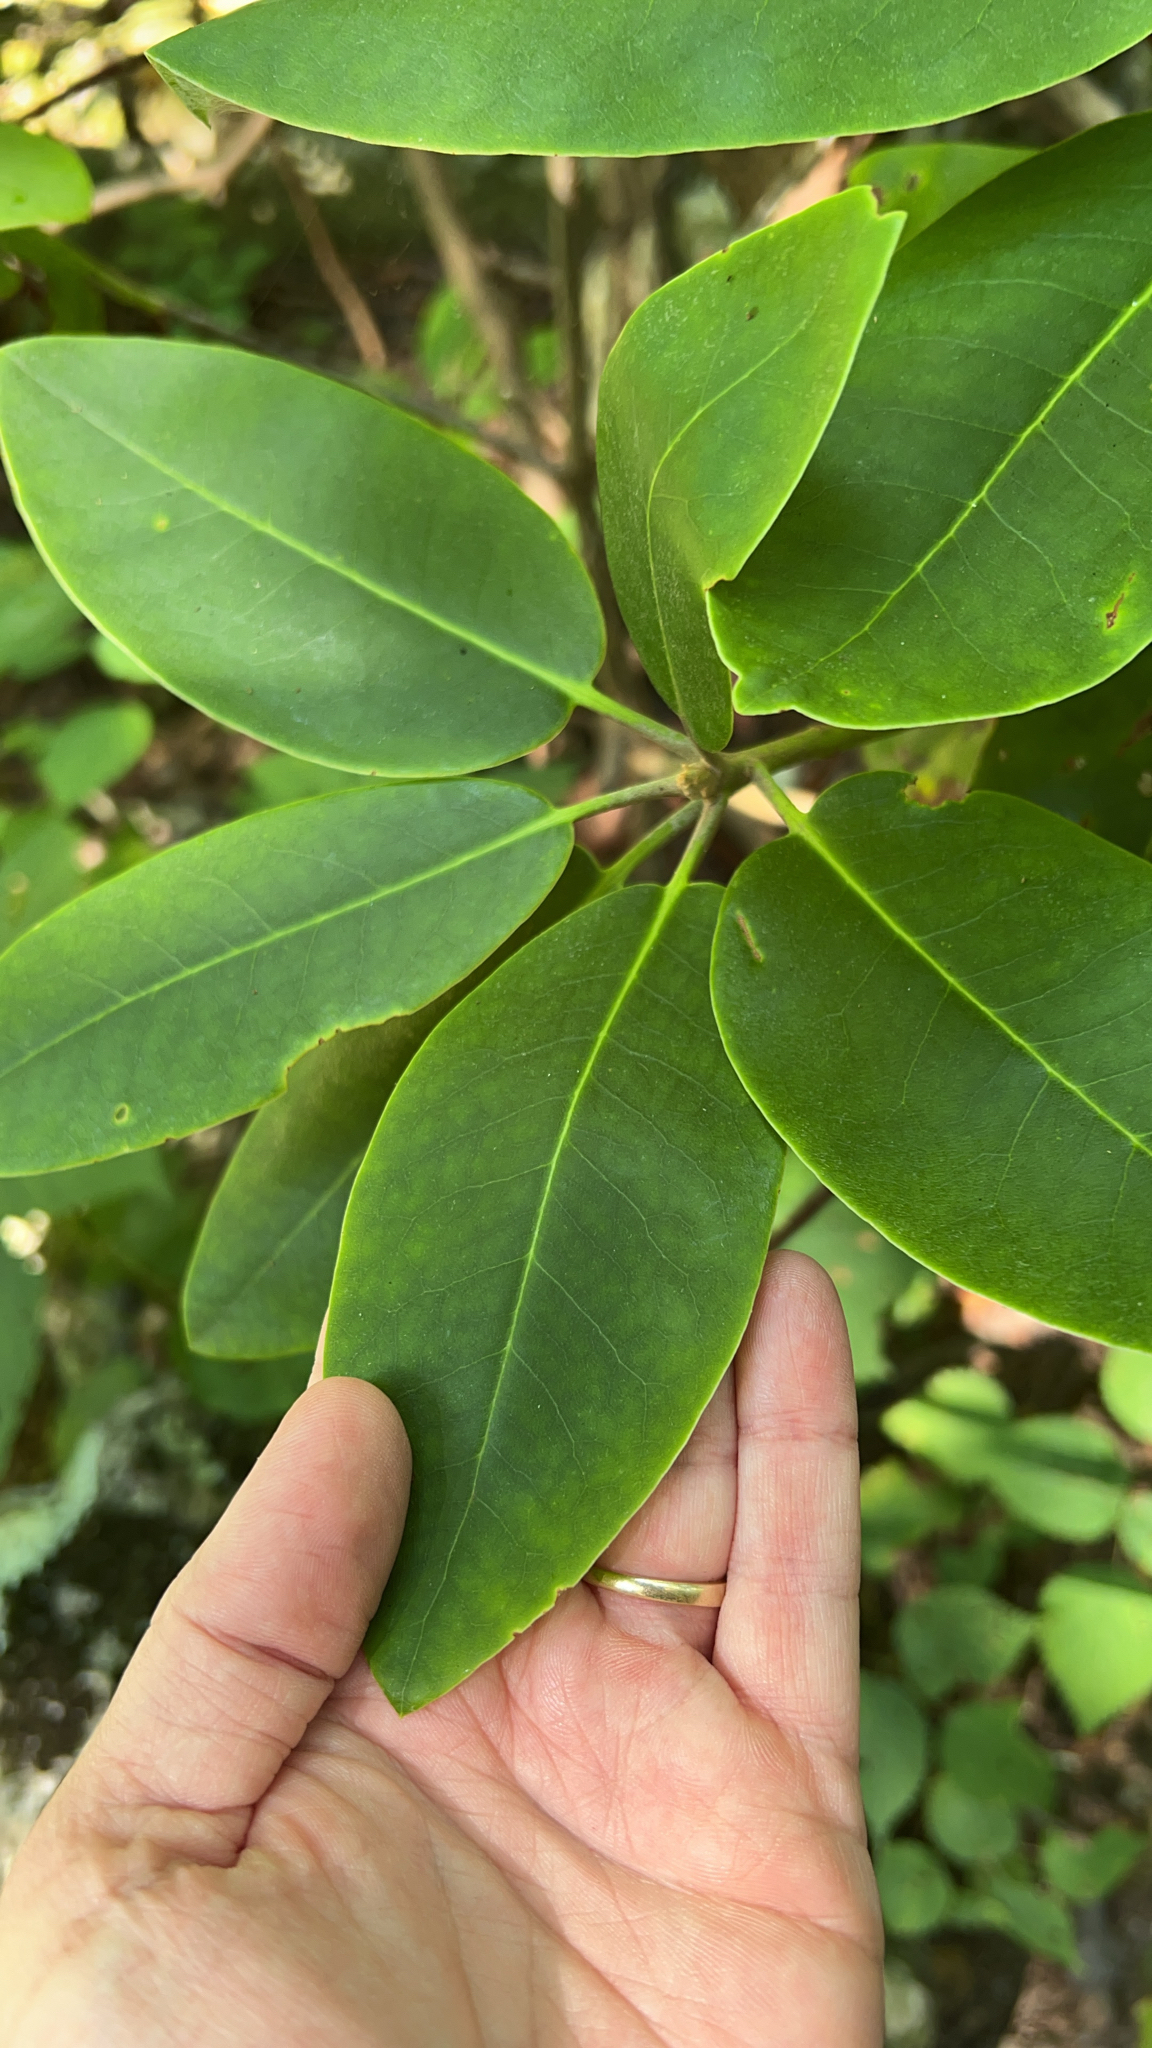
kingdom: Plantae
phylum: Tracheophyta
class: Magnoliopsida
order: Ericales
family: Ericaceae
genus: Rhododendron
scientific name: Rhododendron catawbiense
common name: Catawba rhododendron
